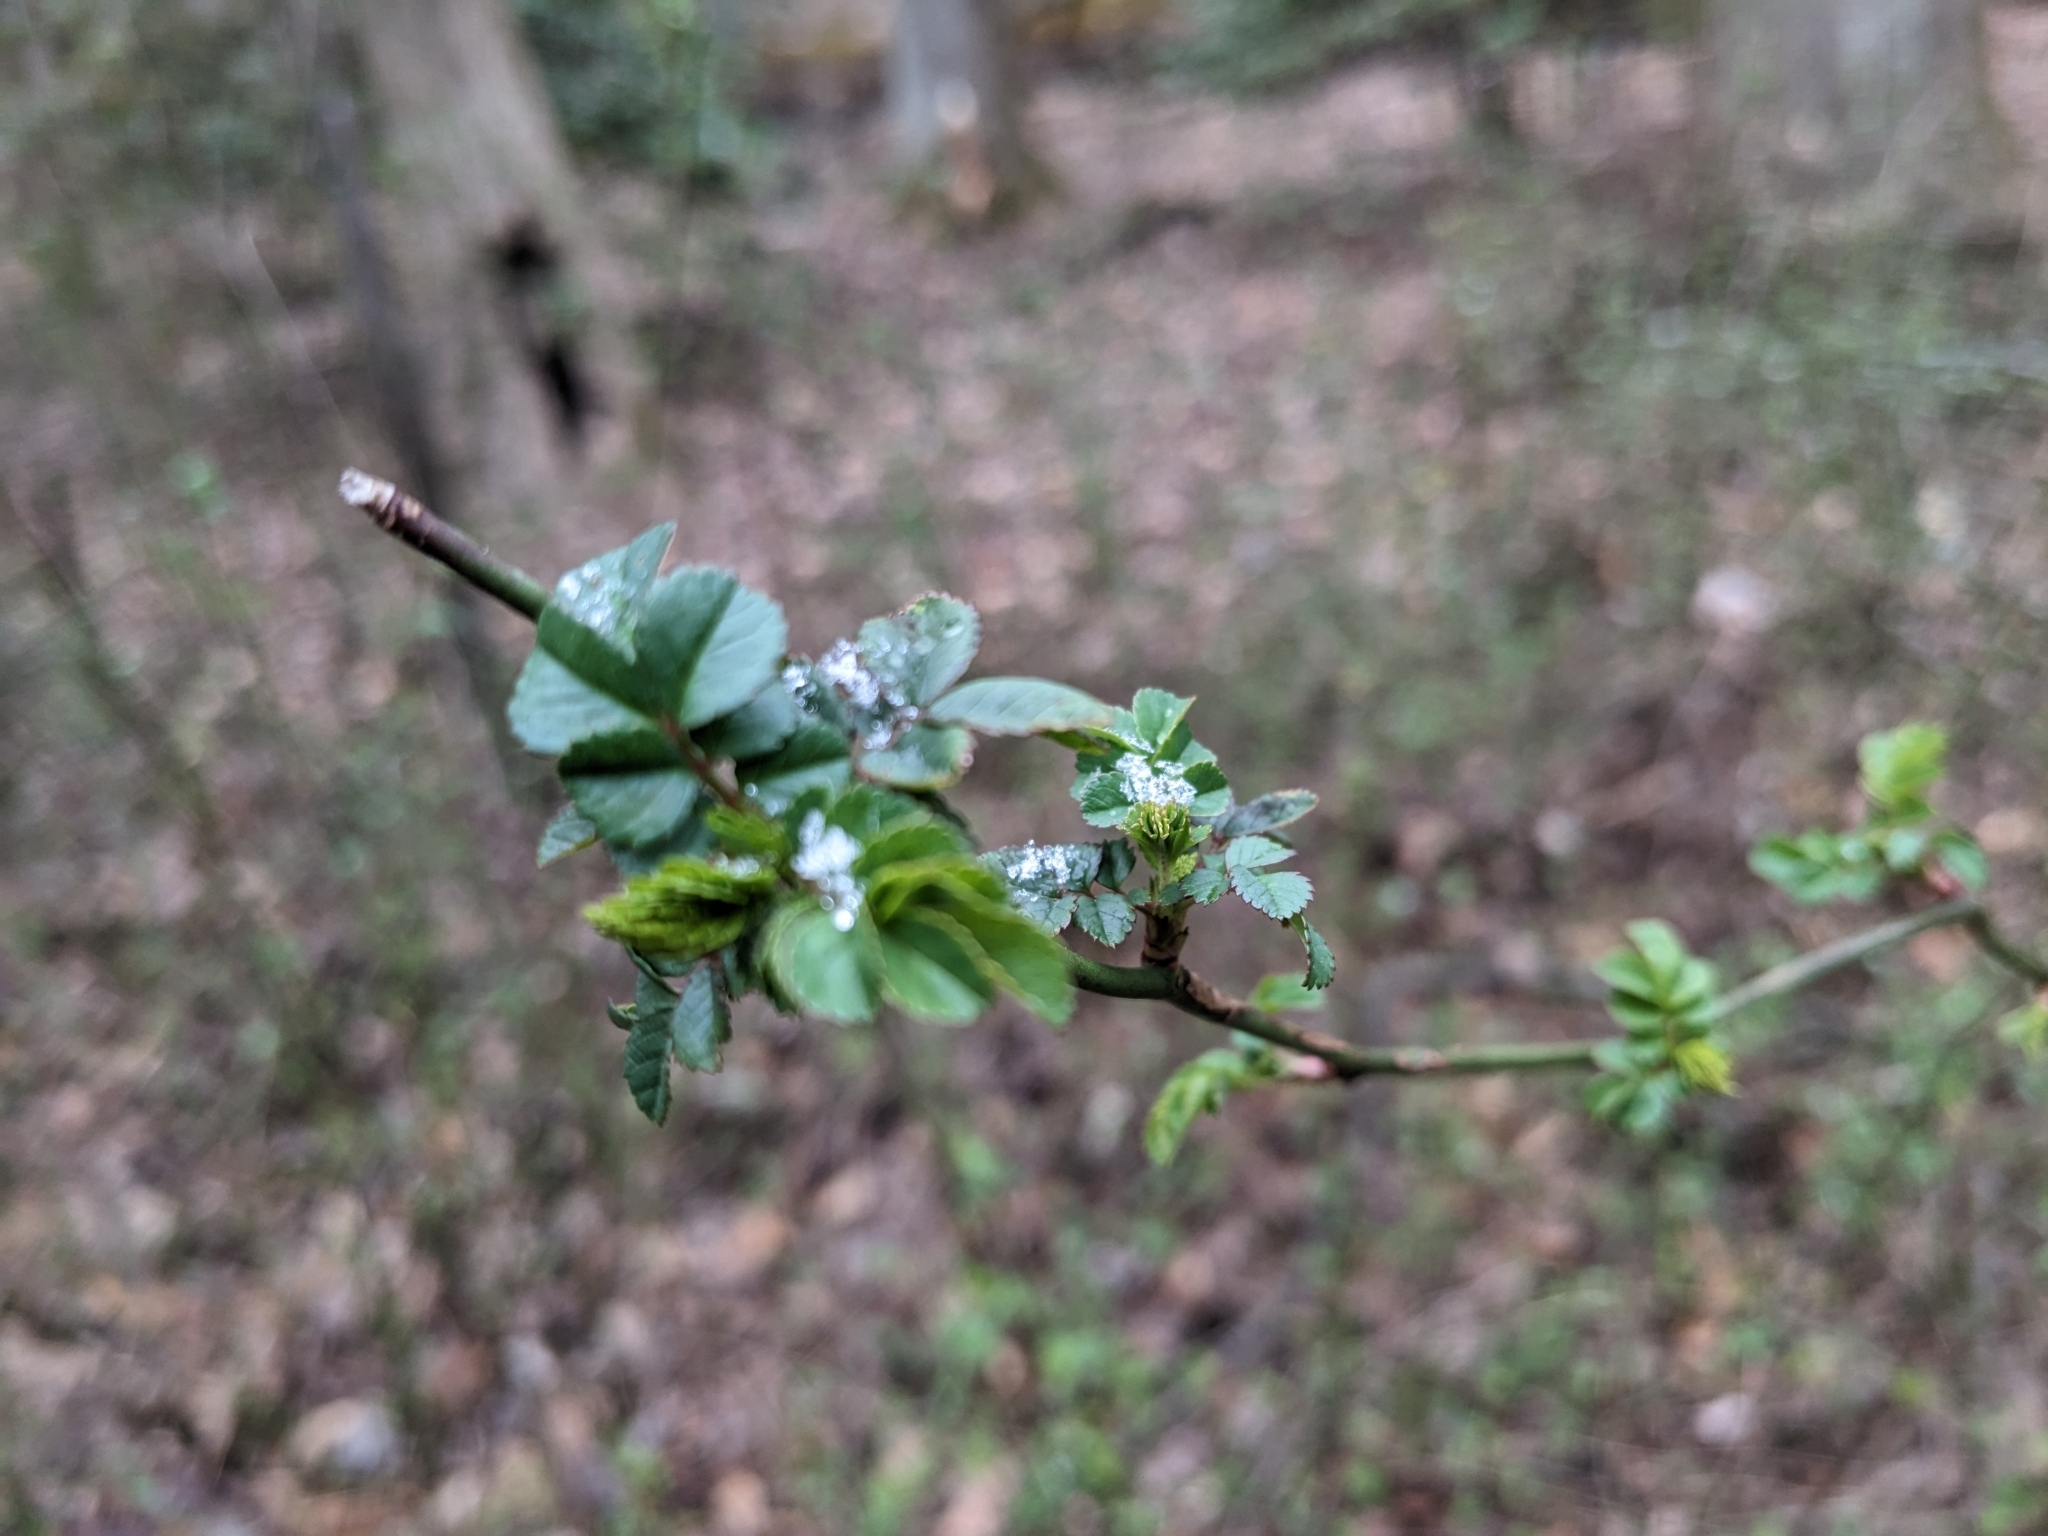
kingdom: Plantae
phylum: Tracheophyta
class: Magnoliopsida
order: Rosales
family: Rosaceae
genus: Rosa
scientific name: Rosa multiflora
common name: Multiflora rose
